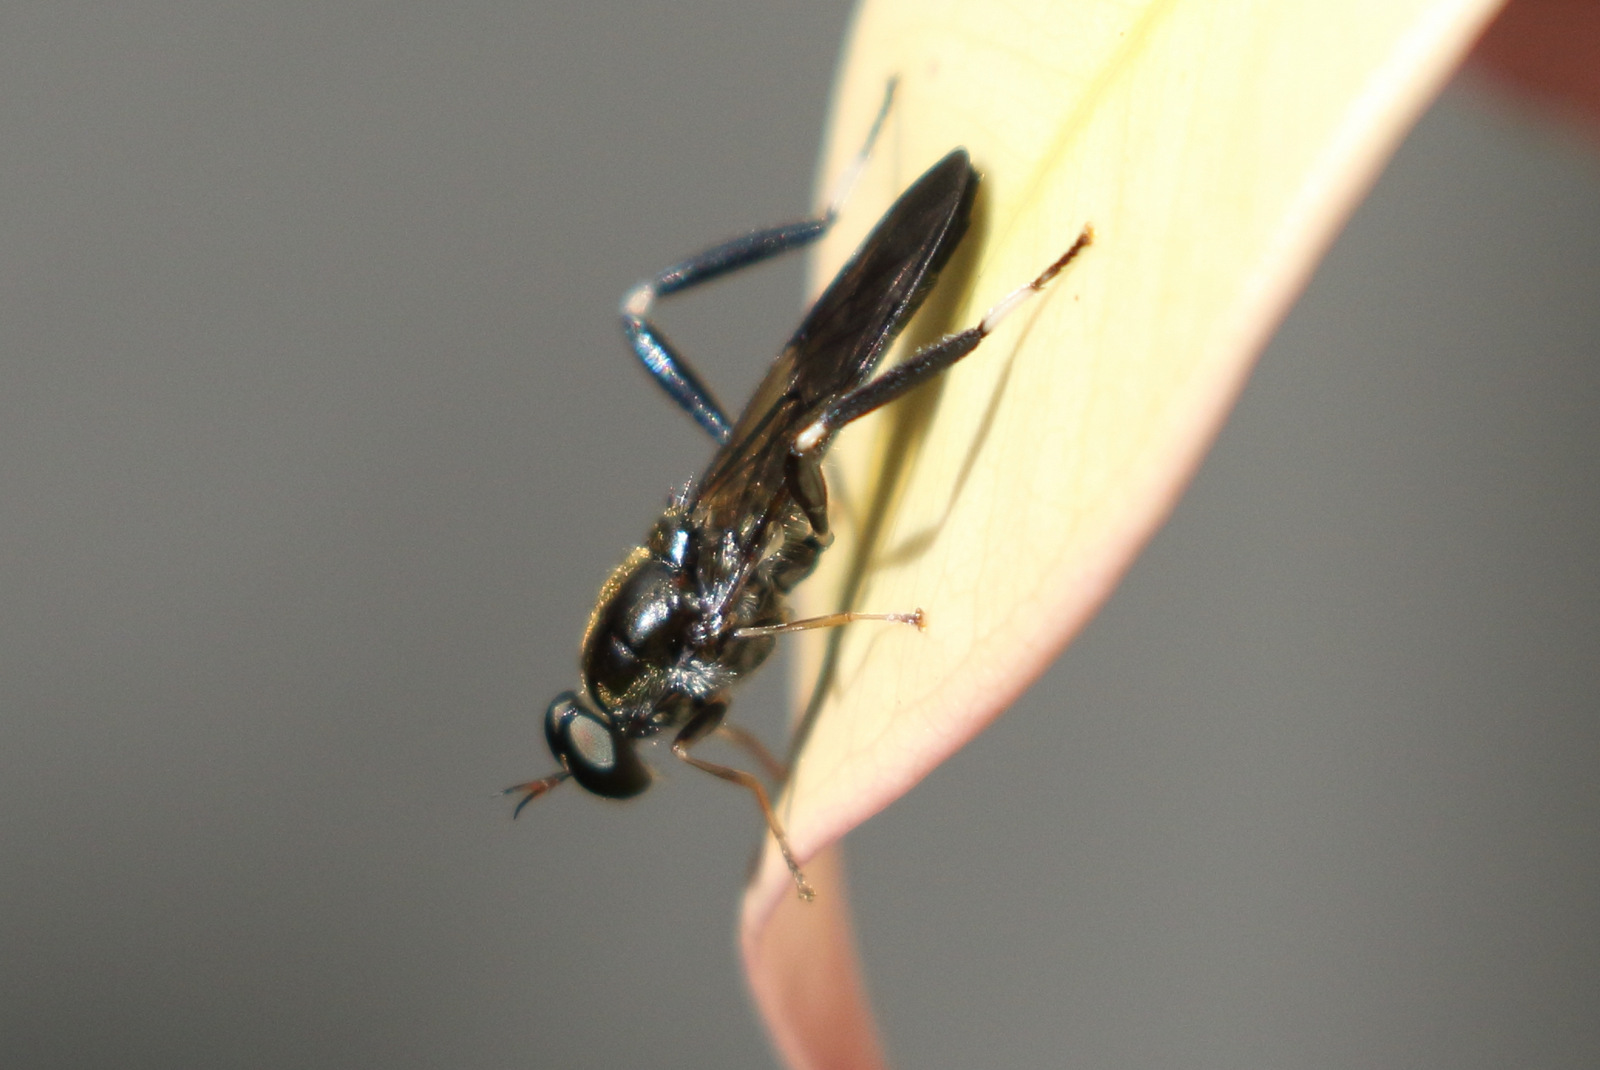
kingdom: Animalia
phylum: Arthropoda
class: Insecta
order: Diptera
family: Stratiomyidae
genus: Exaireta
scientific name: Exaireta spinigera
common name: Blue soldier fly
